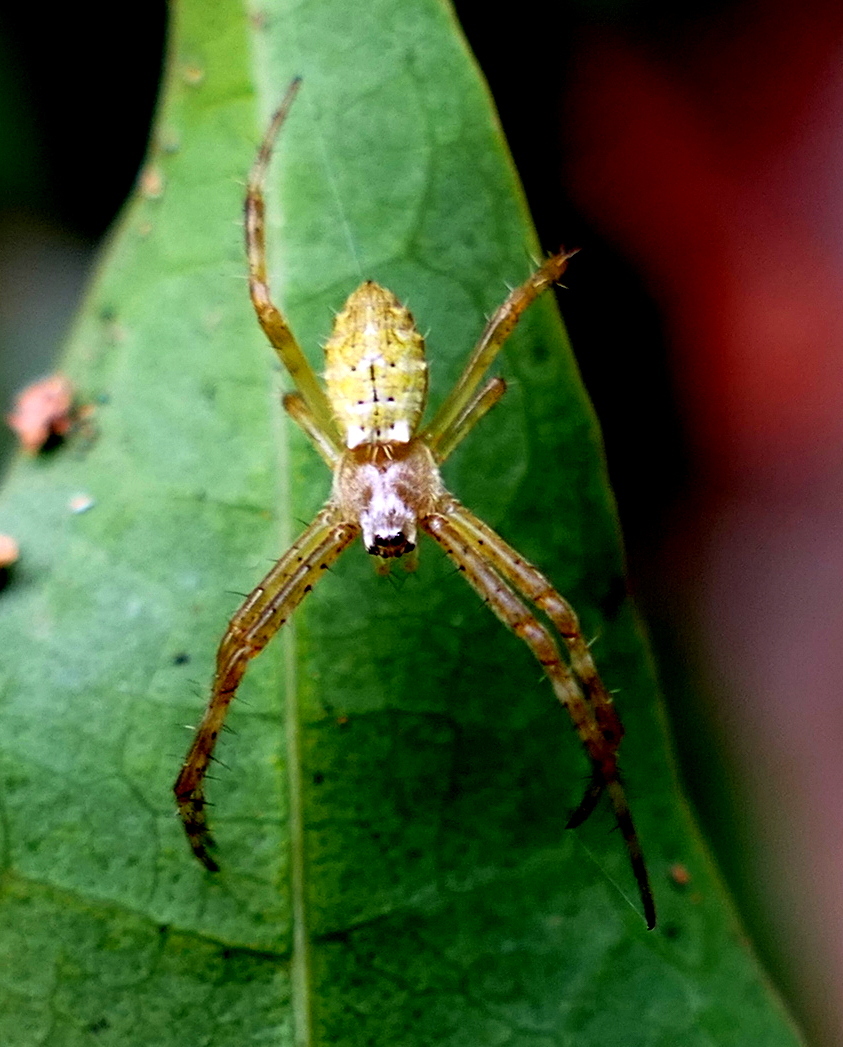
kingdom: Animalia
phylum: Arthropoda
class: Arachnida
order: Araneae
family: Araneidae
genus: Argiope
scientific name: Argiope argentata
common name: Orb weavers
